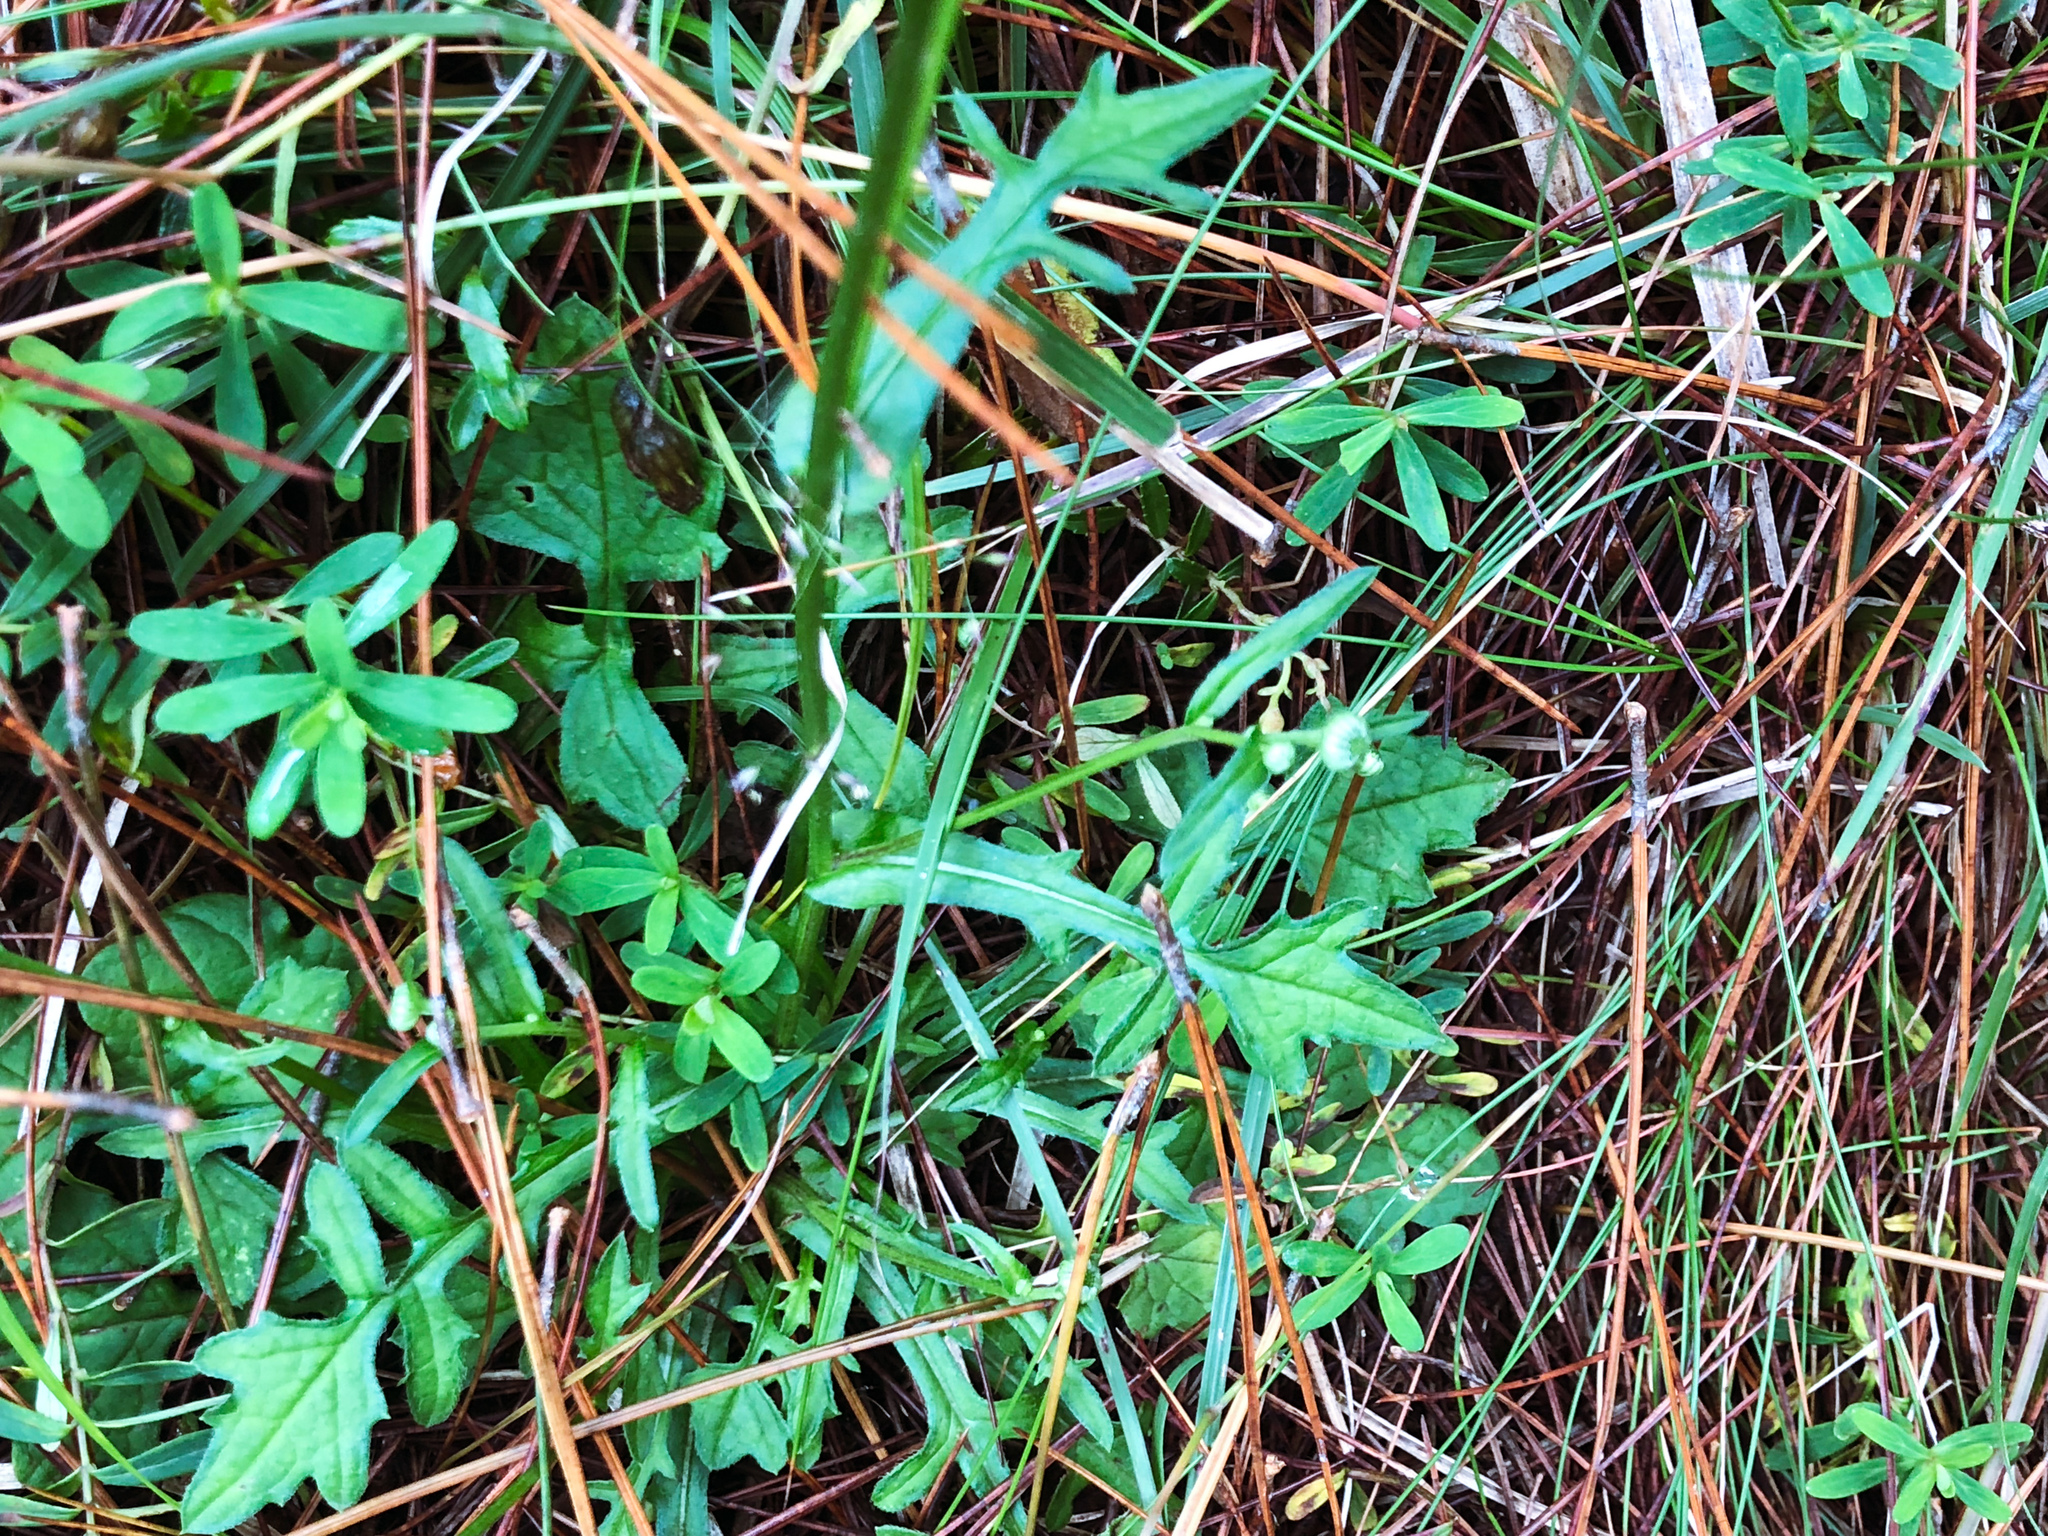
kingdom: Plantae
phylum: Tracheophyta
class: Magnoliopsida
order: Asterales
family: Asteraceae
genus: Myriactis
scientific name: Myriactis humilis
